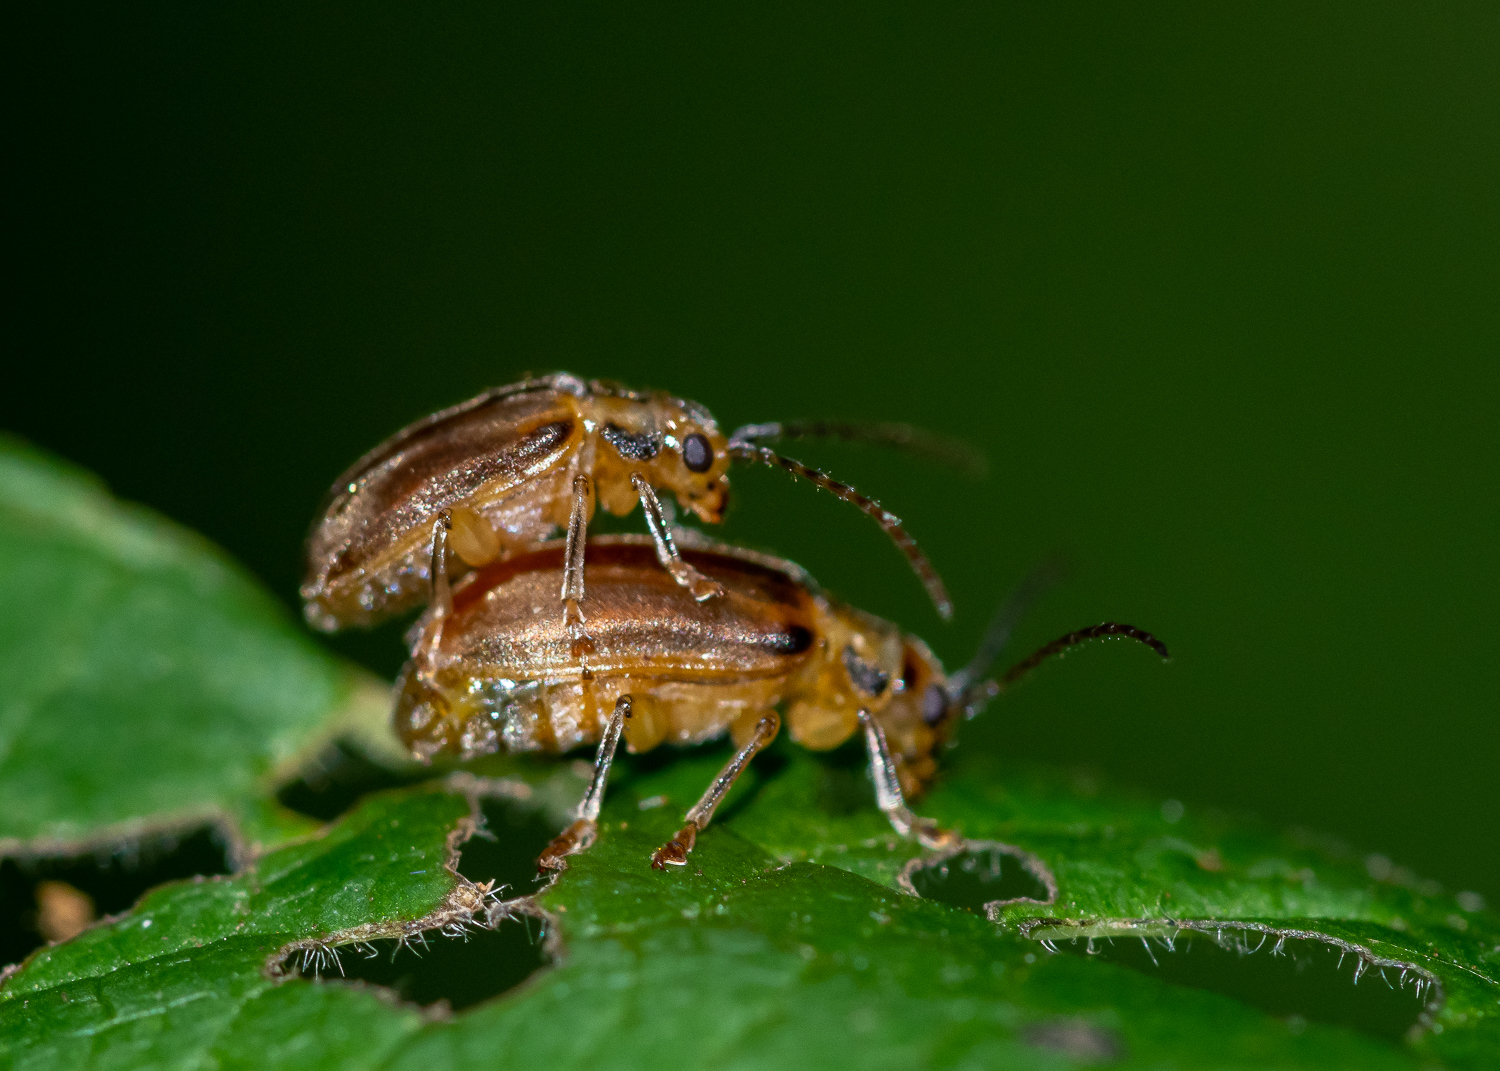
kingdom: Animalia
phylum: Arthropoda
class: Insecta
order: Coleoptera
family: Chrysomelidae
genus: Pyrrhalta
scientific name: Pyrrhalta viburni
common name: Guelder-rose leaf beetle
